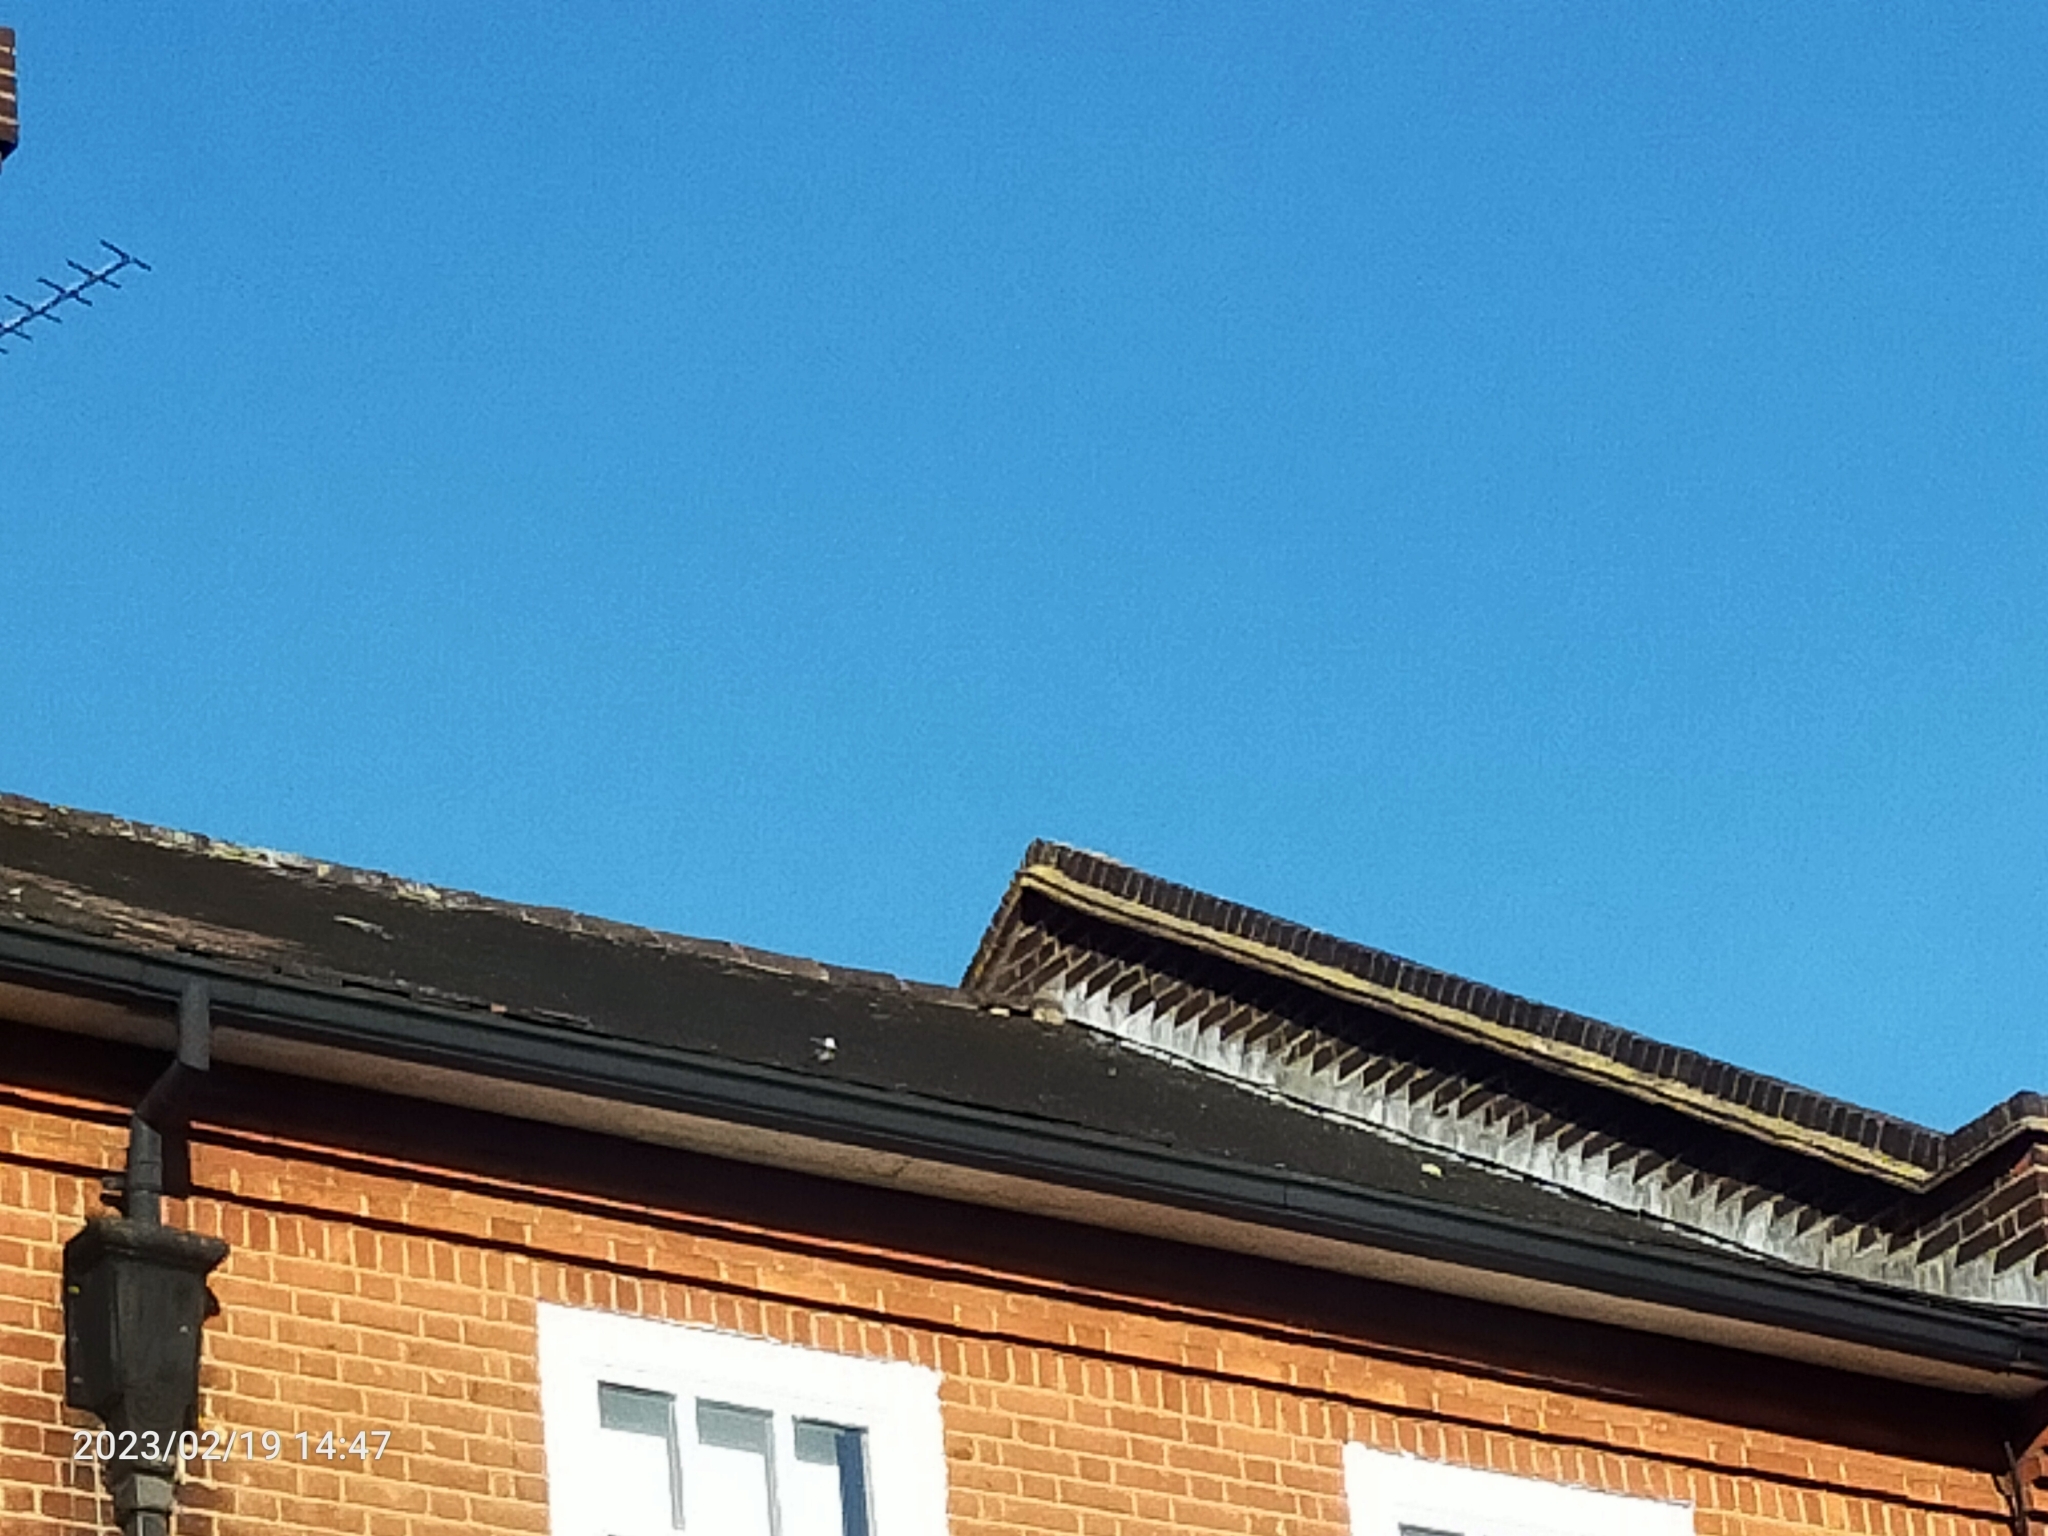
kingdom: Animalia
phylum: Chordata
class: Aves
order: Passeriformes
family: Motacillidae
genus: Motacilla
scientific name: Motacilla alba
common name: White wagtail
